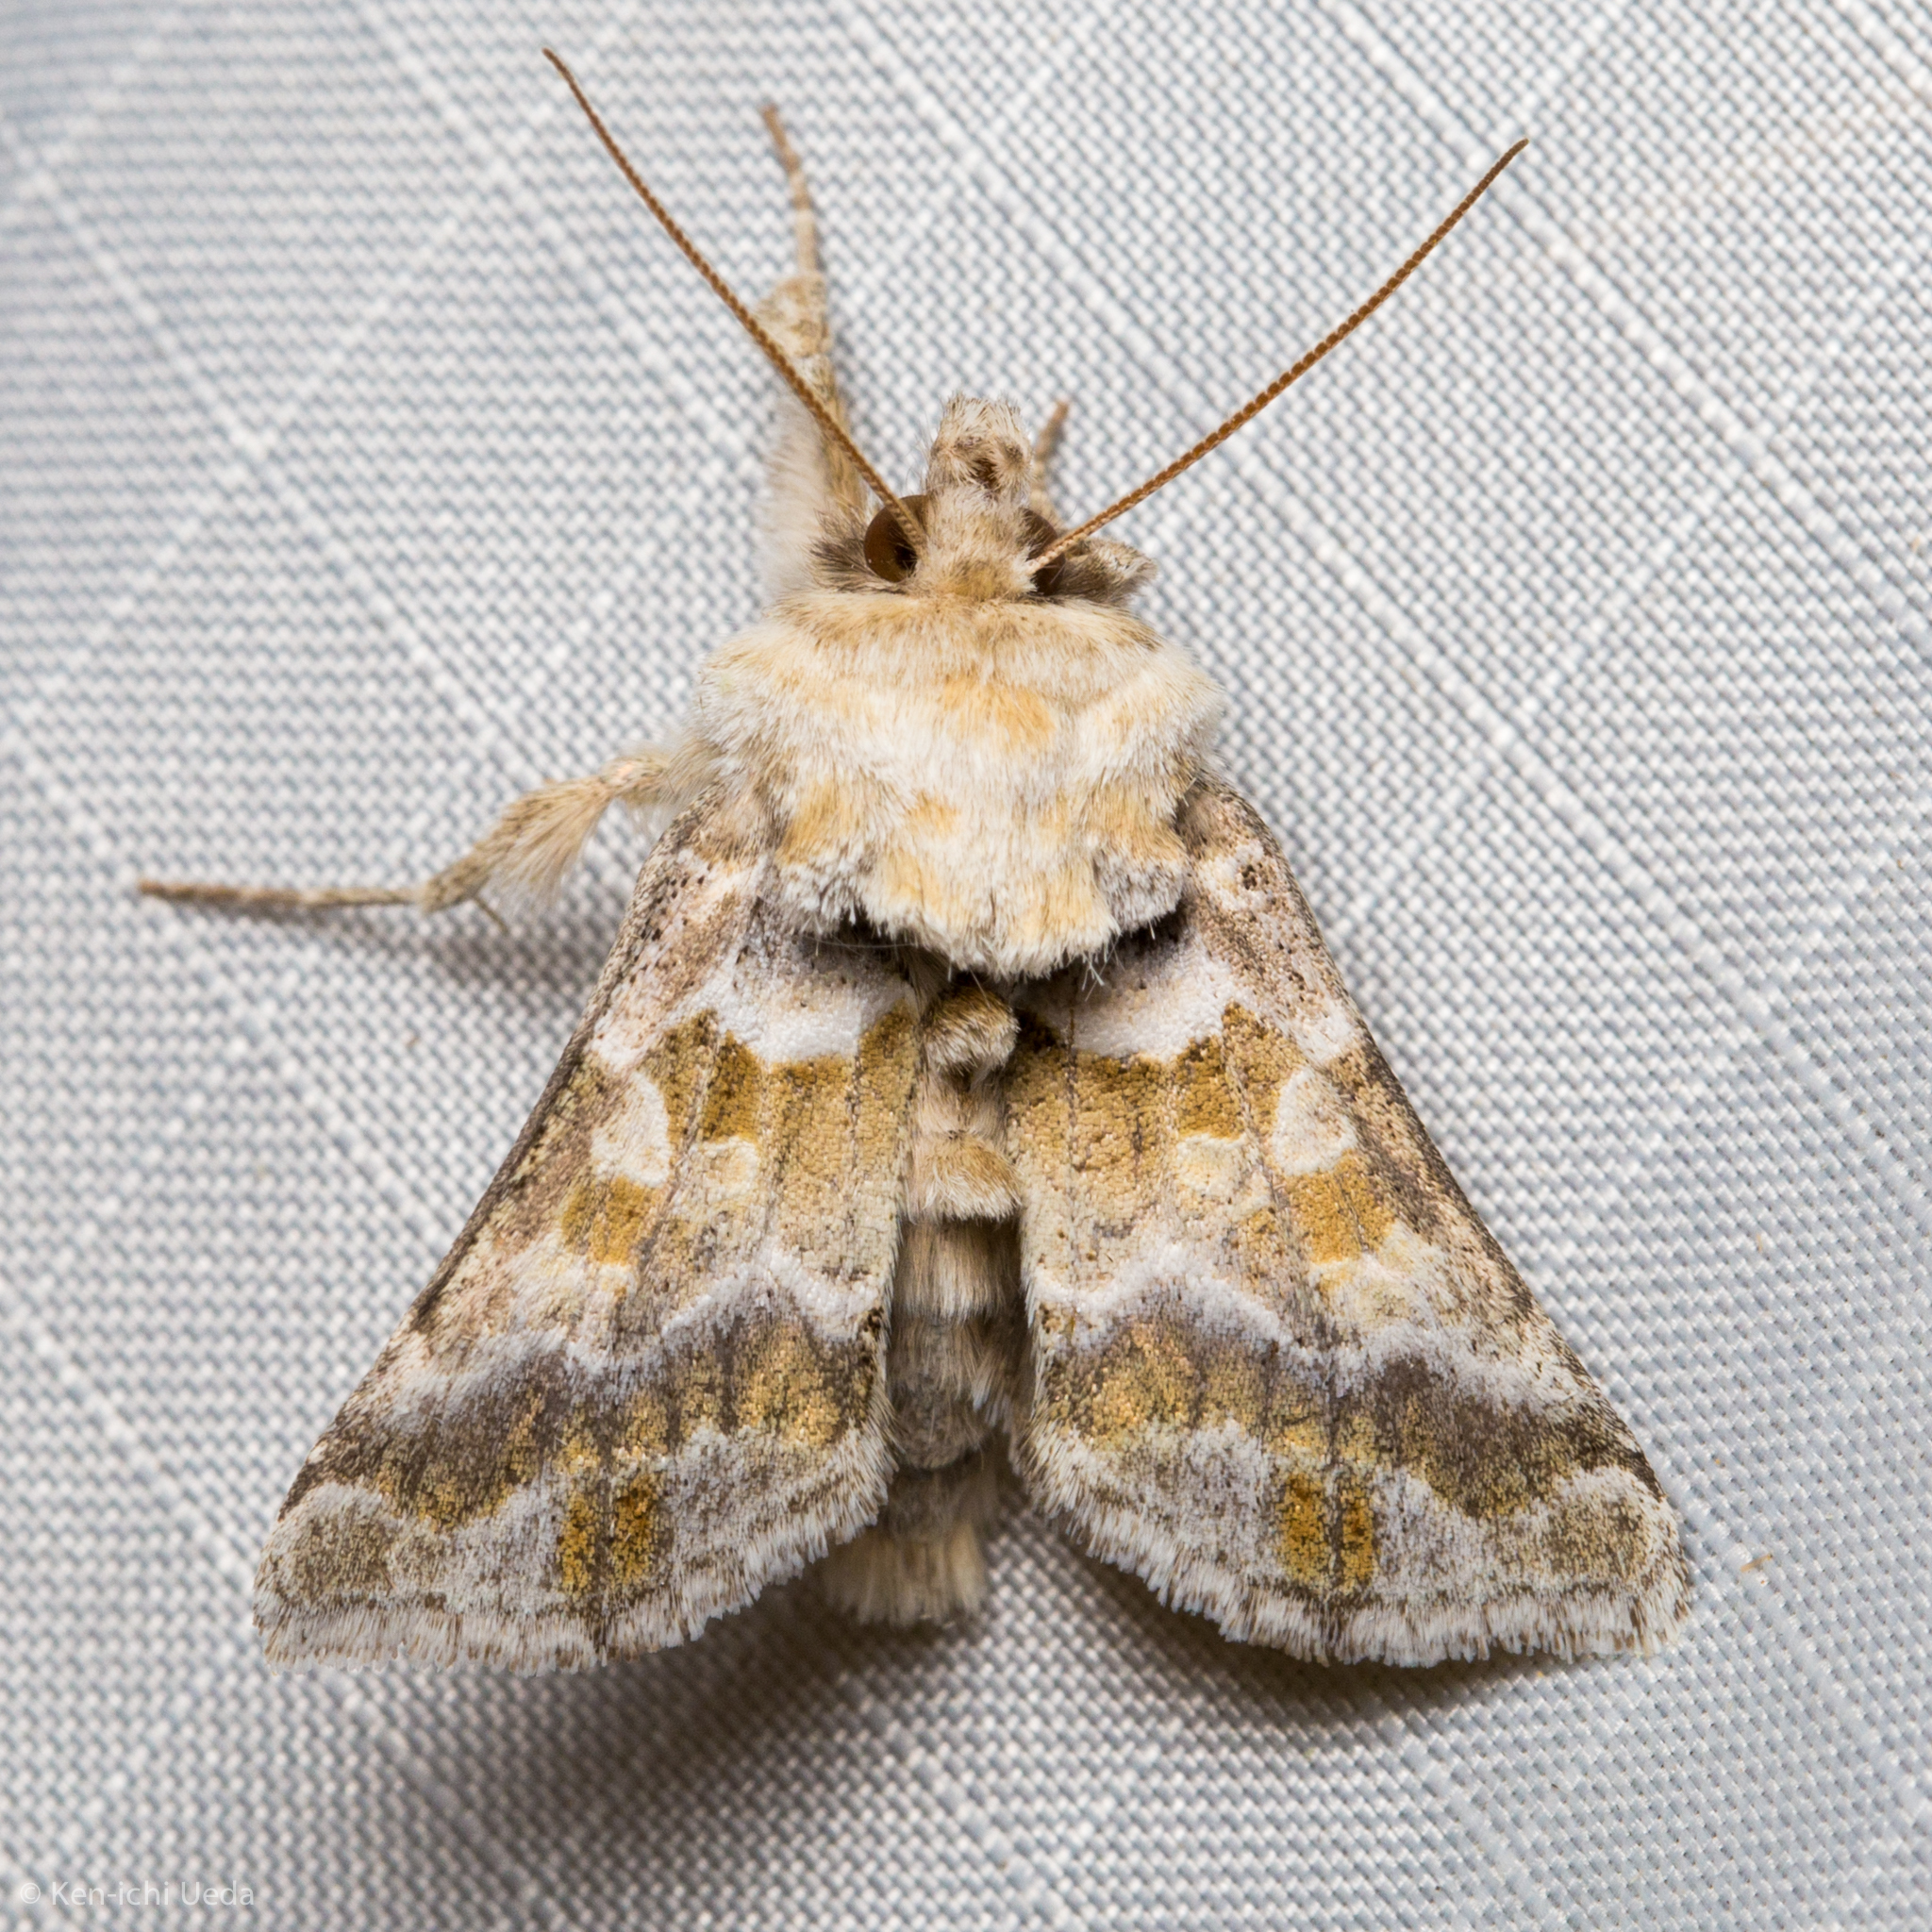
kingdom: Animalia
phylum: Arthropoda
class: Insecta
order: Lepidoptera
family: Noctuidae
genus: Euchalcia
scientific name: Euchalcia albavitta
